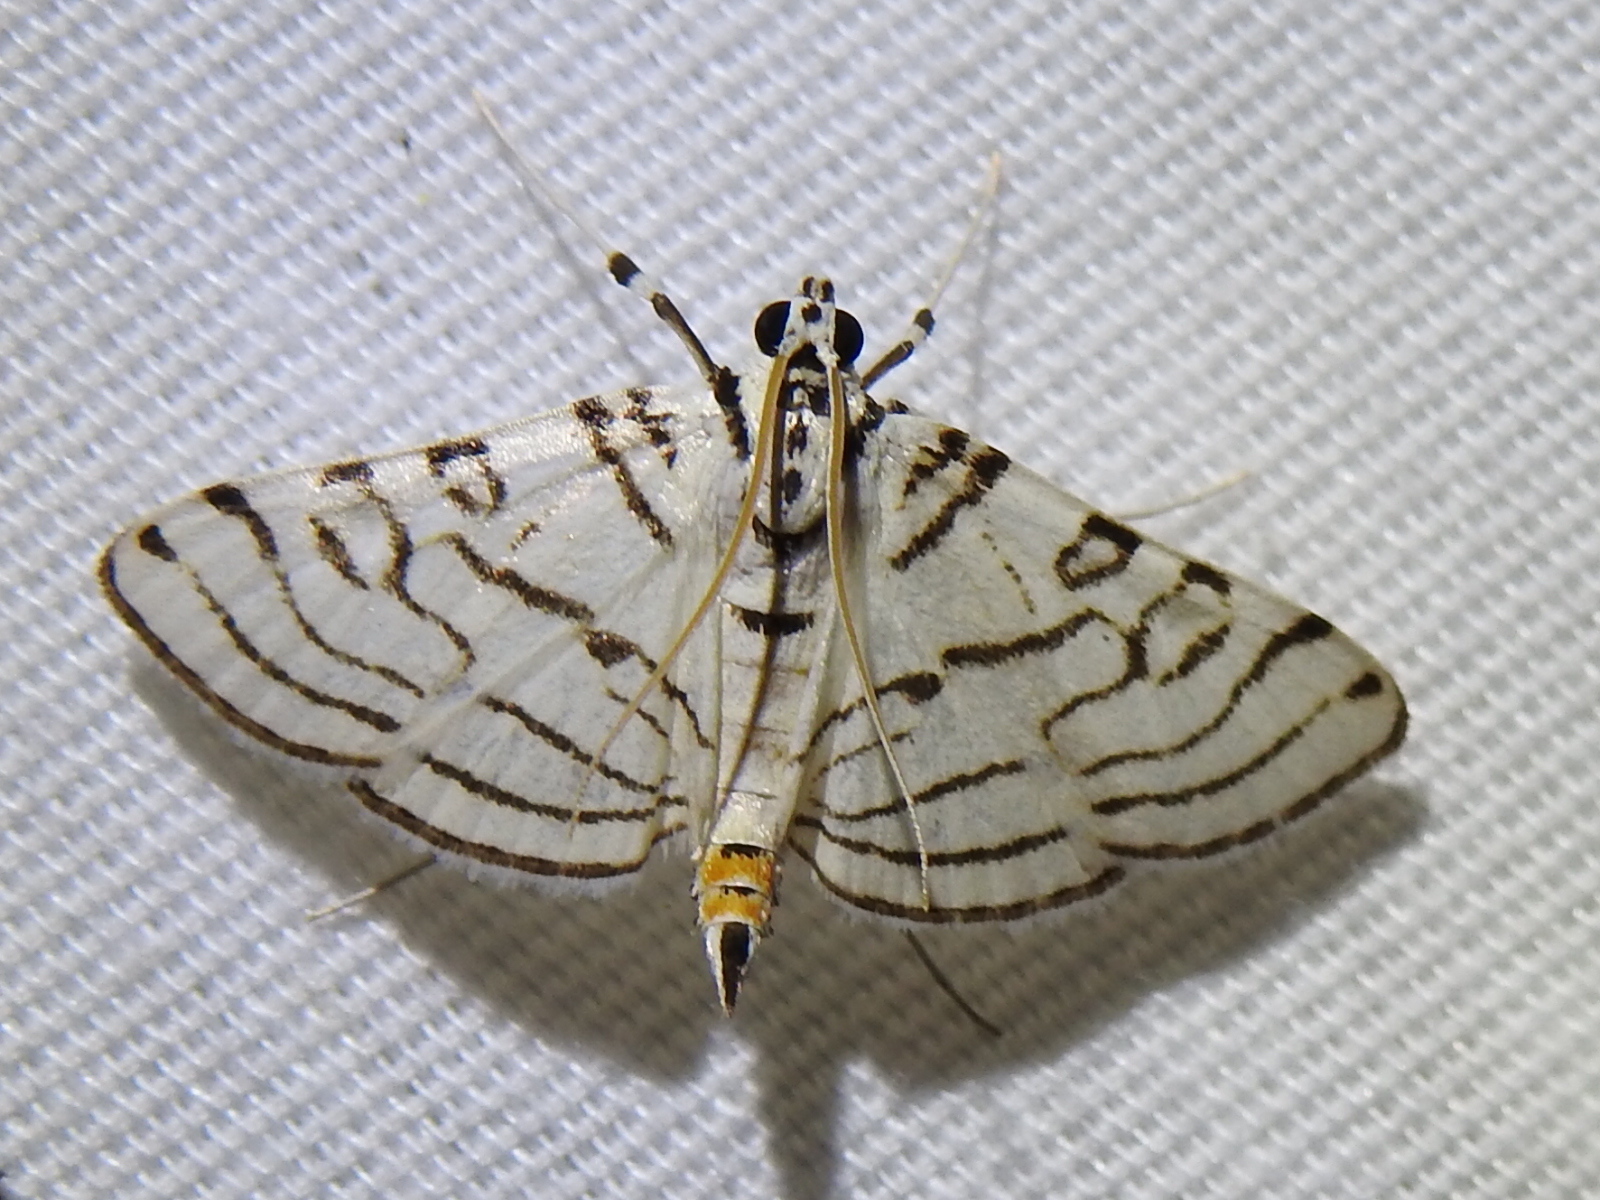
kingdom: Animalia
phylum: Arthropoda
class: Insecta
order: Lepidoptera
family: Crambidae
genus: Conchylodes
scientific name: Conchylodes concinnalis
